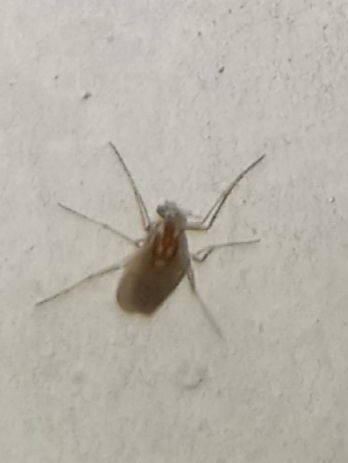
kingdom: Animalia
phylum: Arthropoda
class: Insecta
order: Diptera
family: Chironomidae
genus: Procladius
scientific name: Procladius bellus
